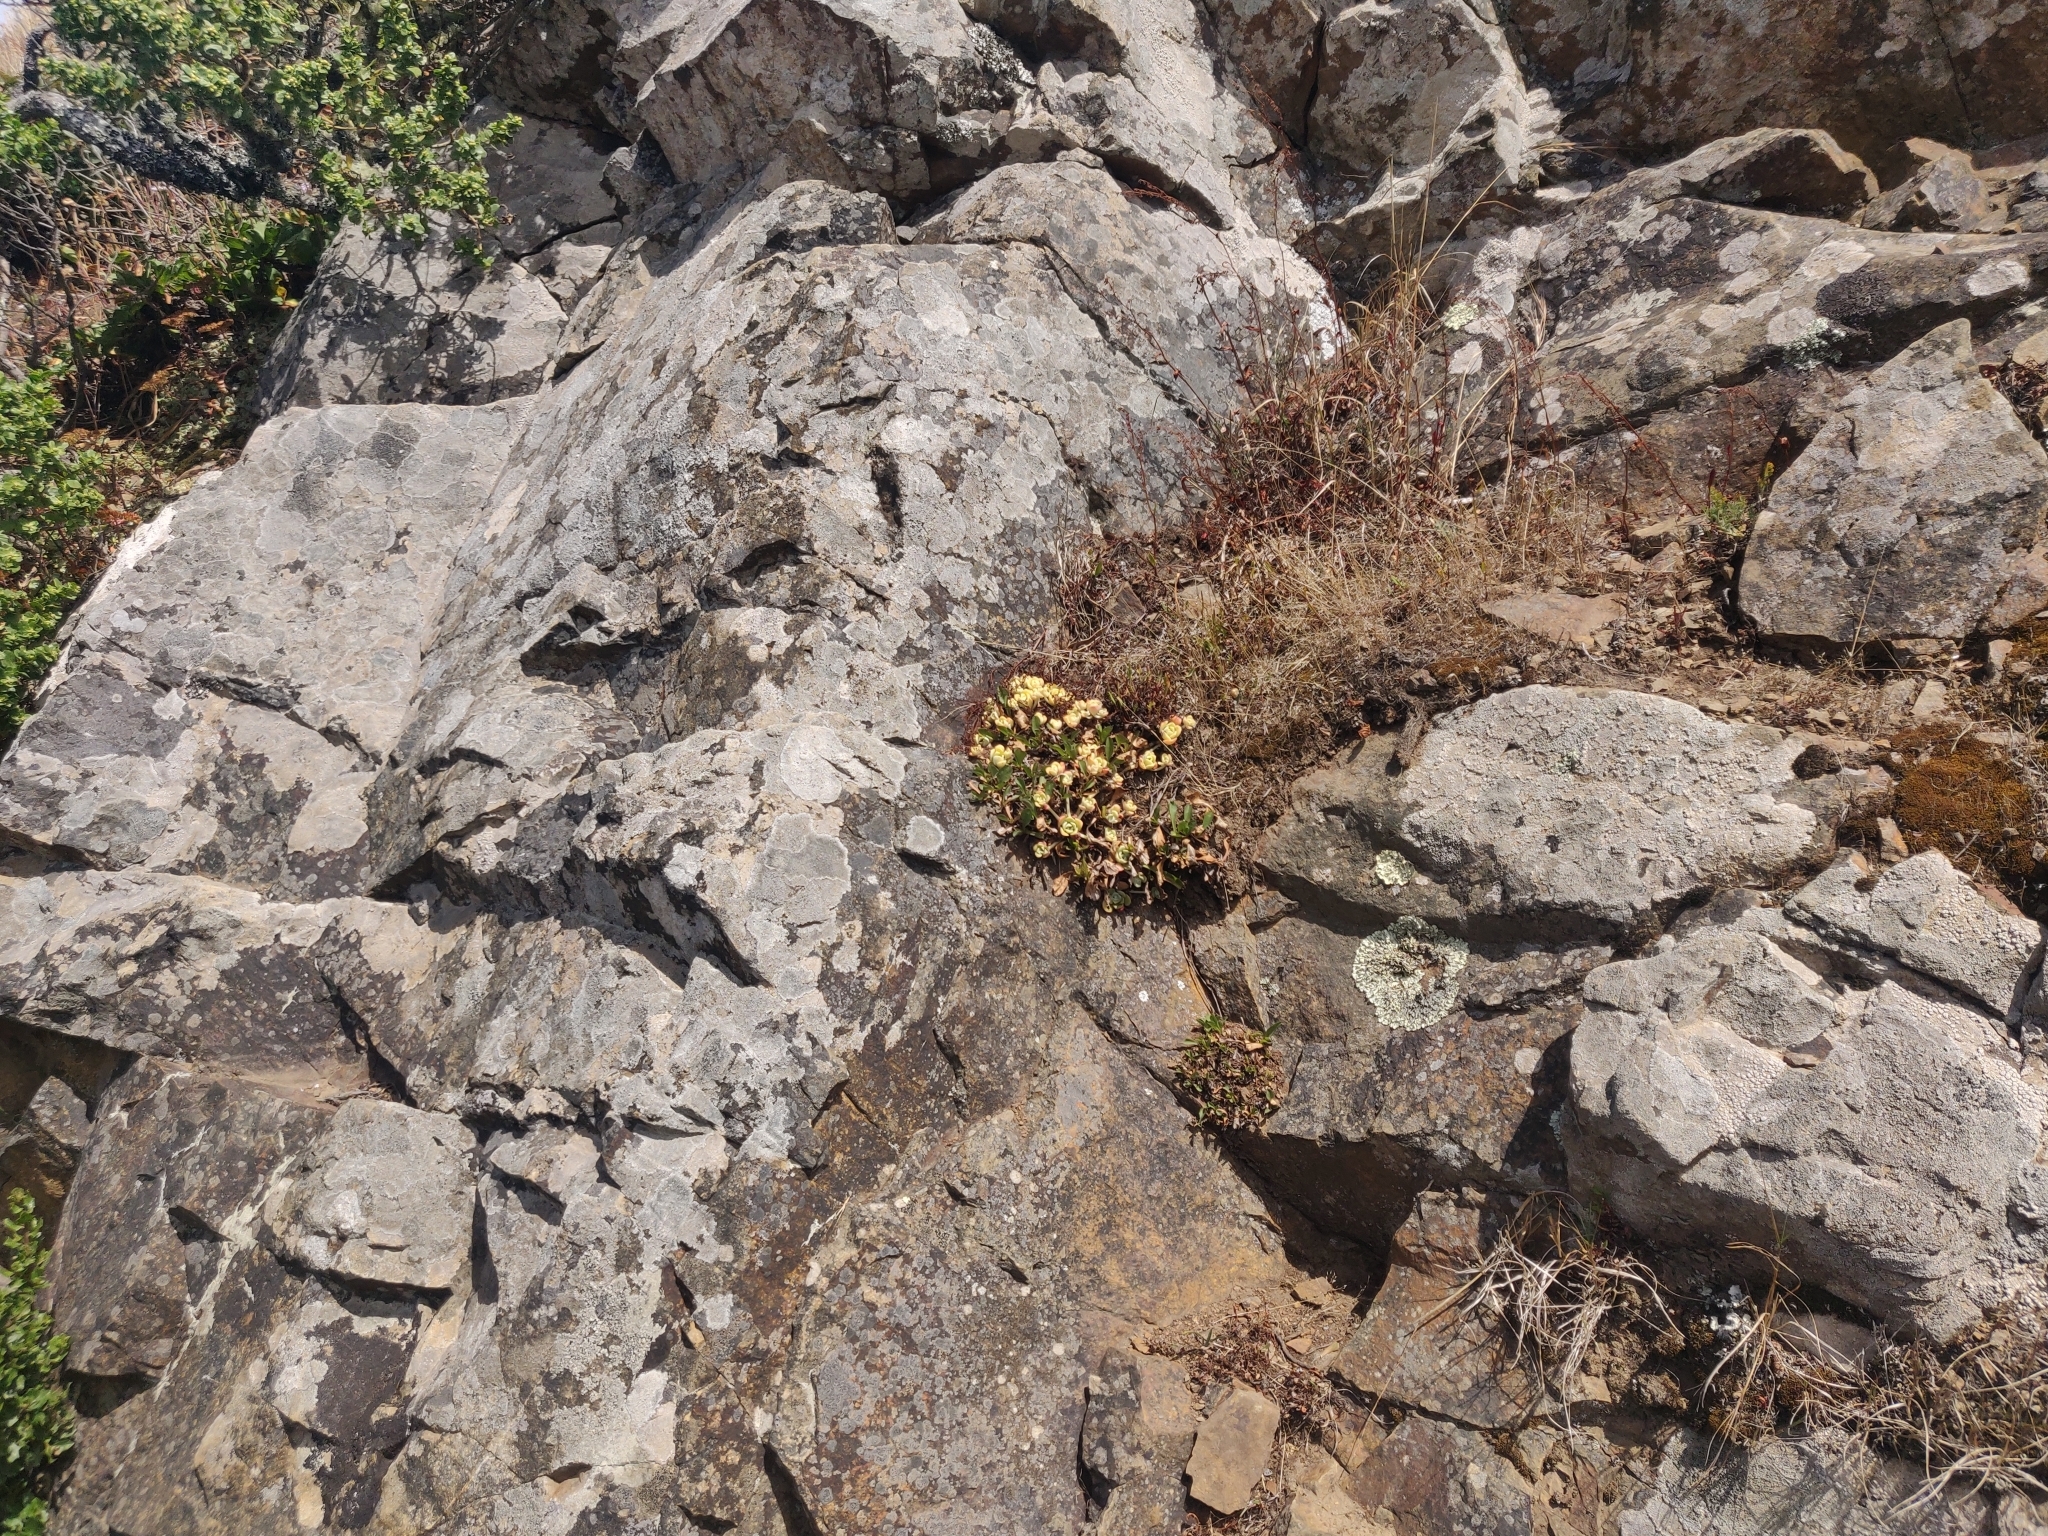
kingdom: Plantae
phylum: Tracheophyta
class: Magnoliopsida
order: Saxifragales
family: Crassulaceae
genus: Sedum
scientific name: Sedum spathulifolium
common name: Colorado stonecrop
